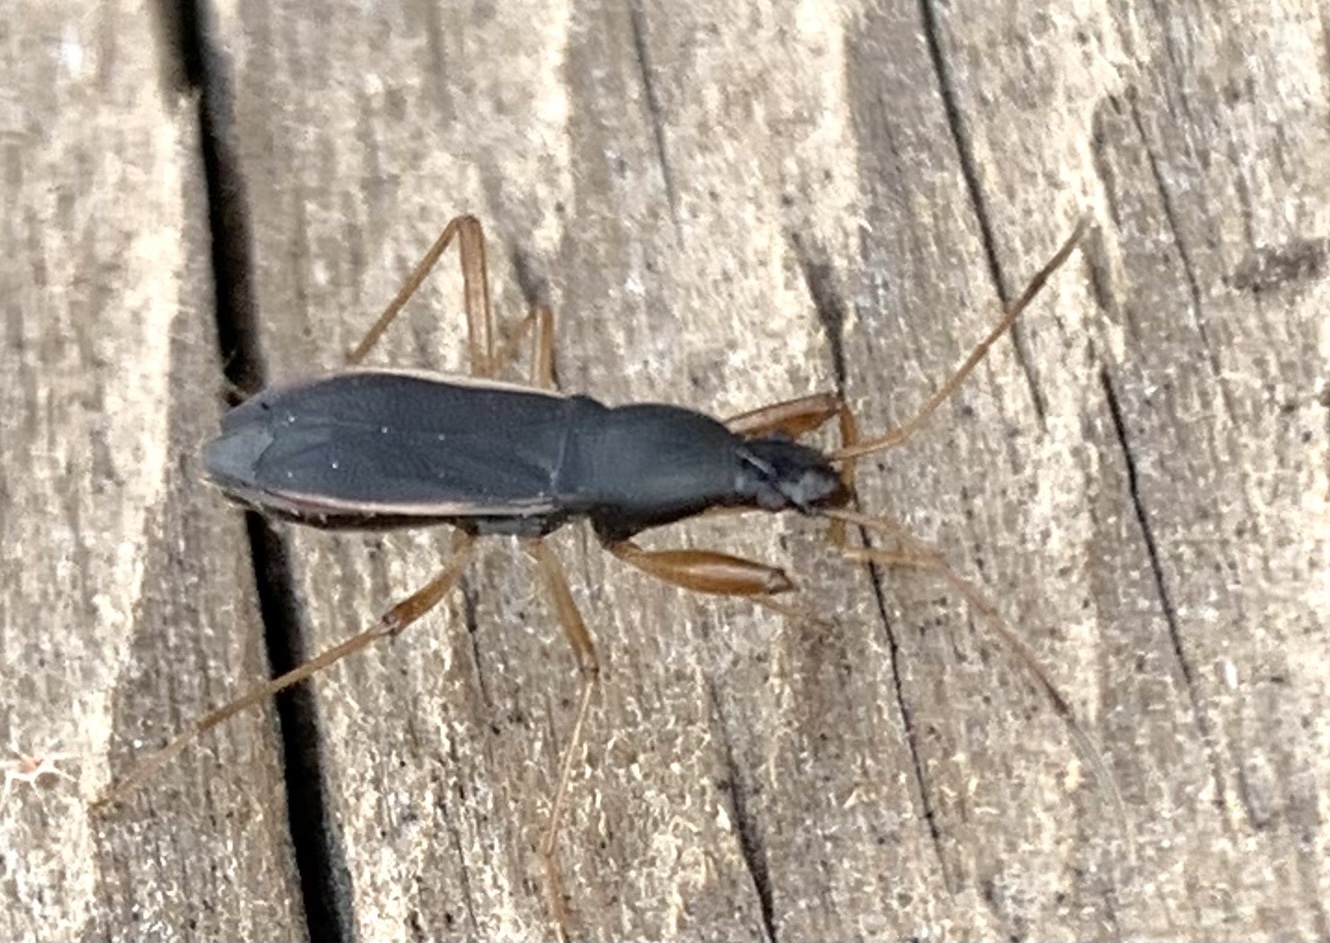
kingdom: Animalia
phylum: Arthropoda
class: Insecta
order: Hemiptera
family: Rhyparochromidae
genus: Cnemodus
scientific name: Cnemodus mavortius
